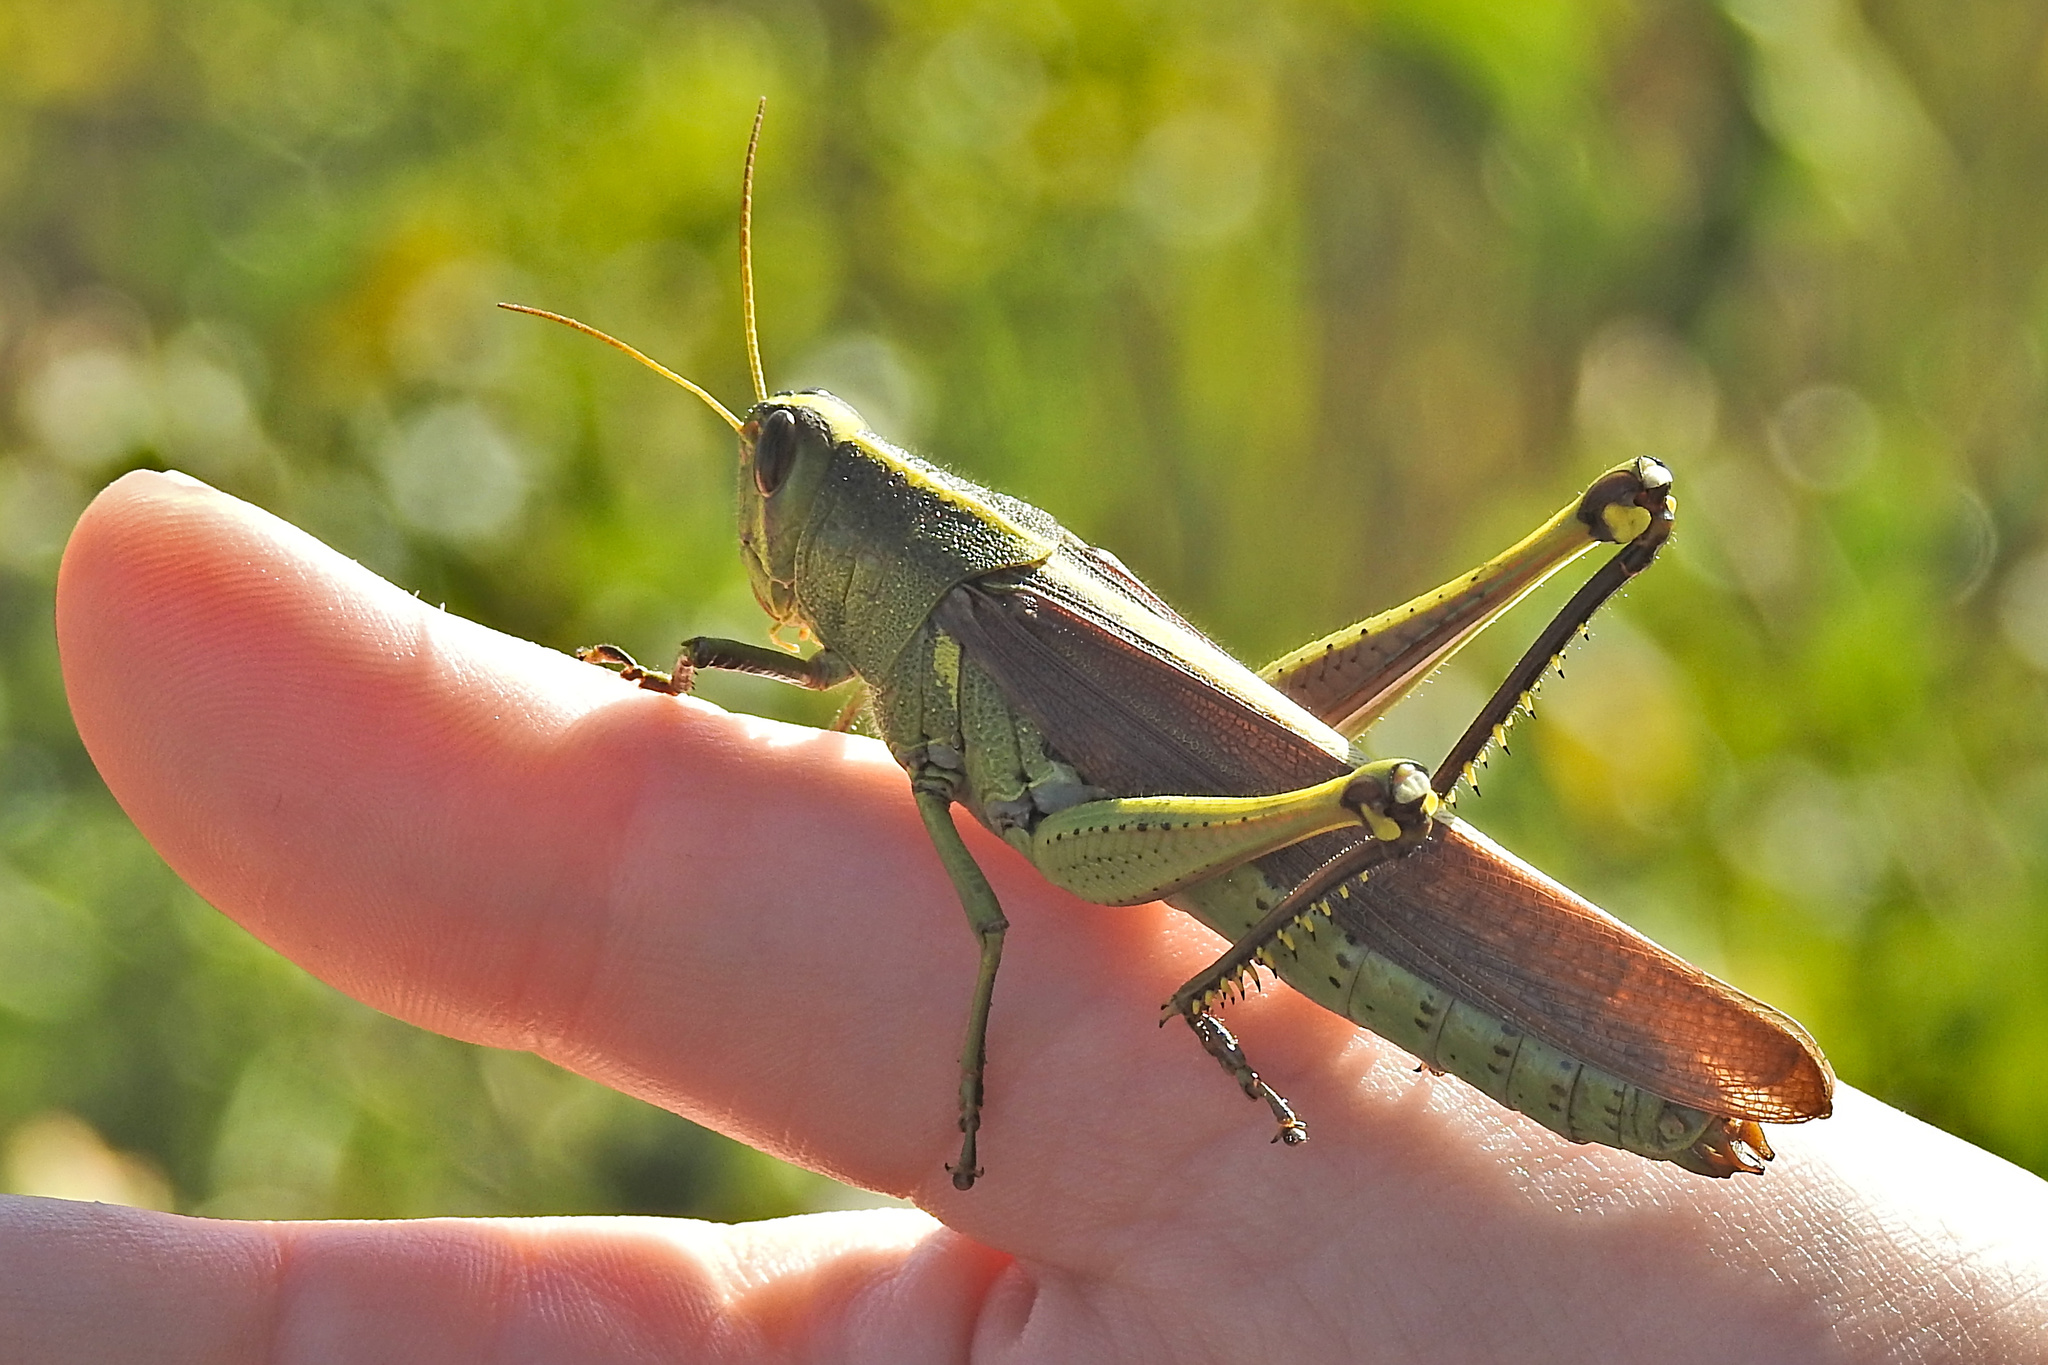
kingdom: Animalia
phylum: Arthropoda
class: Insecta
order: Orthoptera
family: Acrididae
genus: Schistocerca
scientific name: Schistocerca obscura
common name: Obscure bird grasshopper
